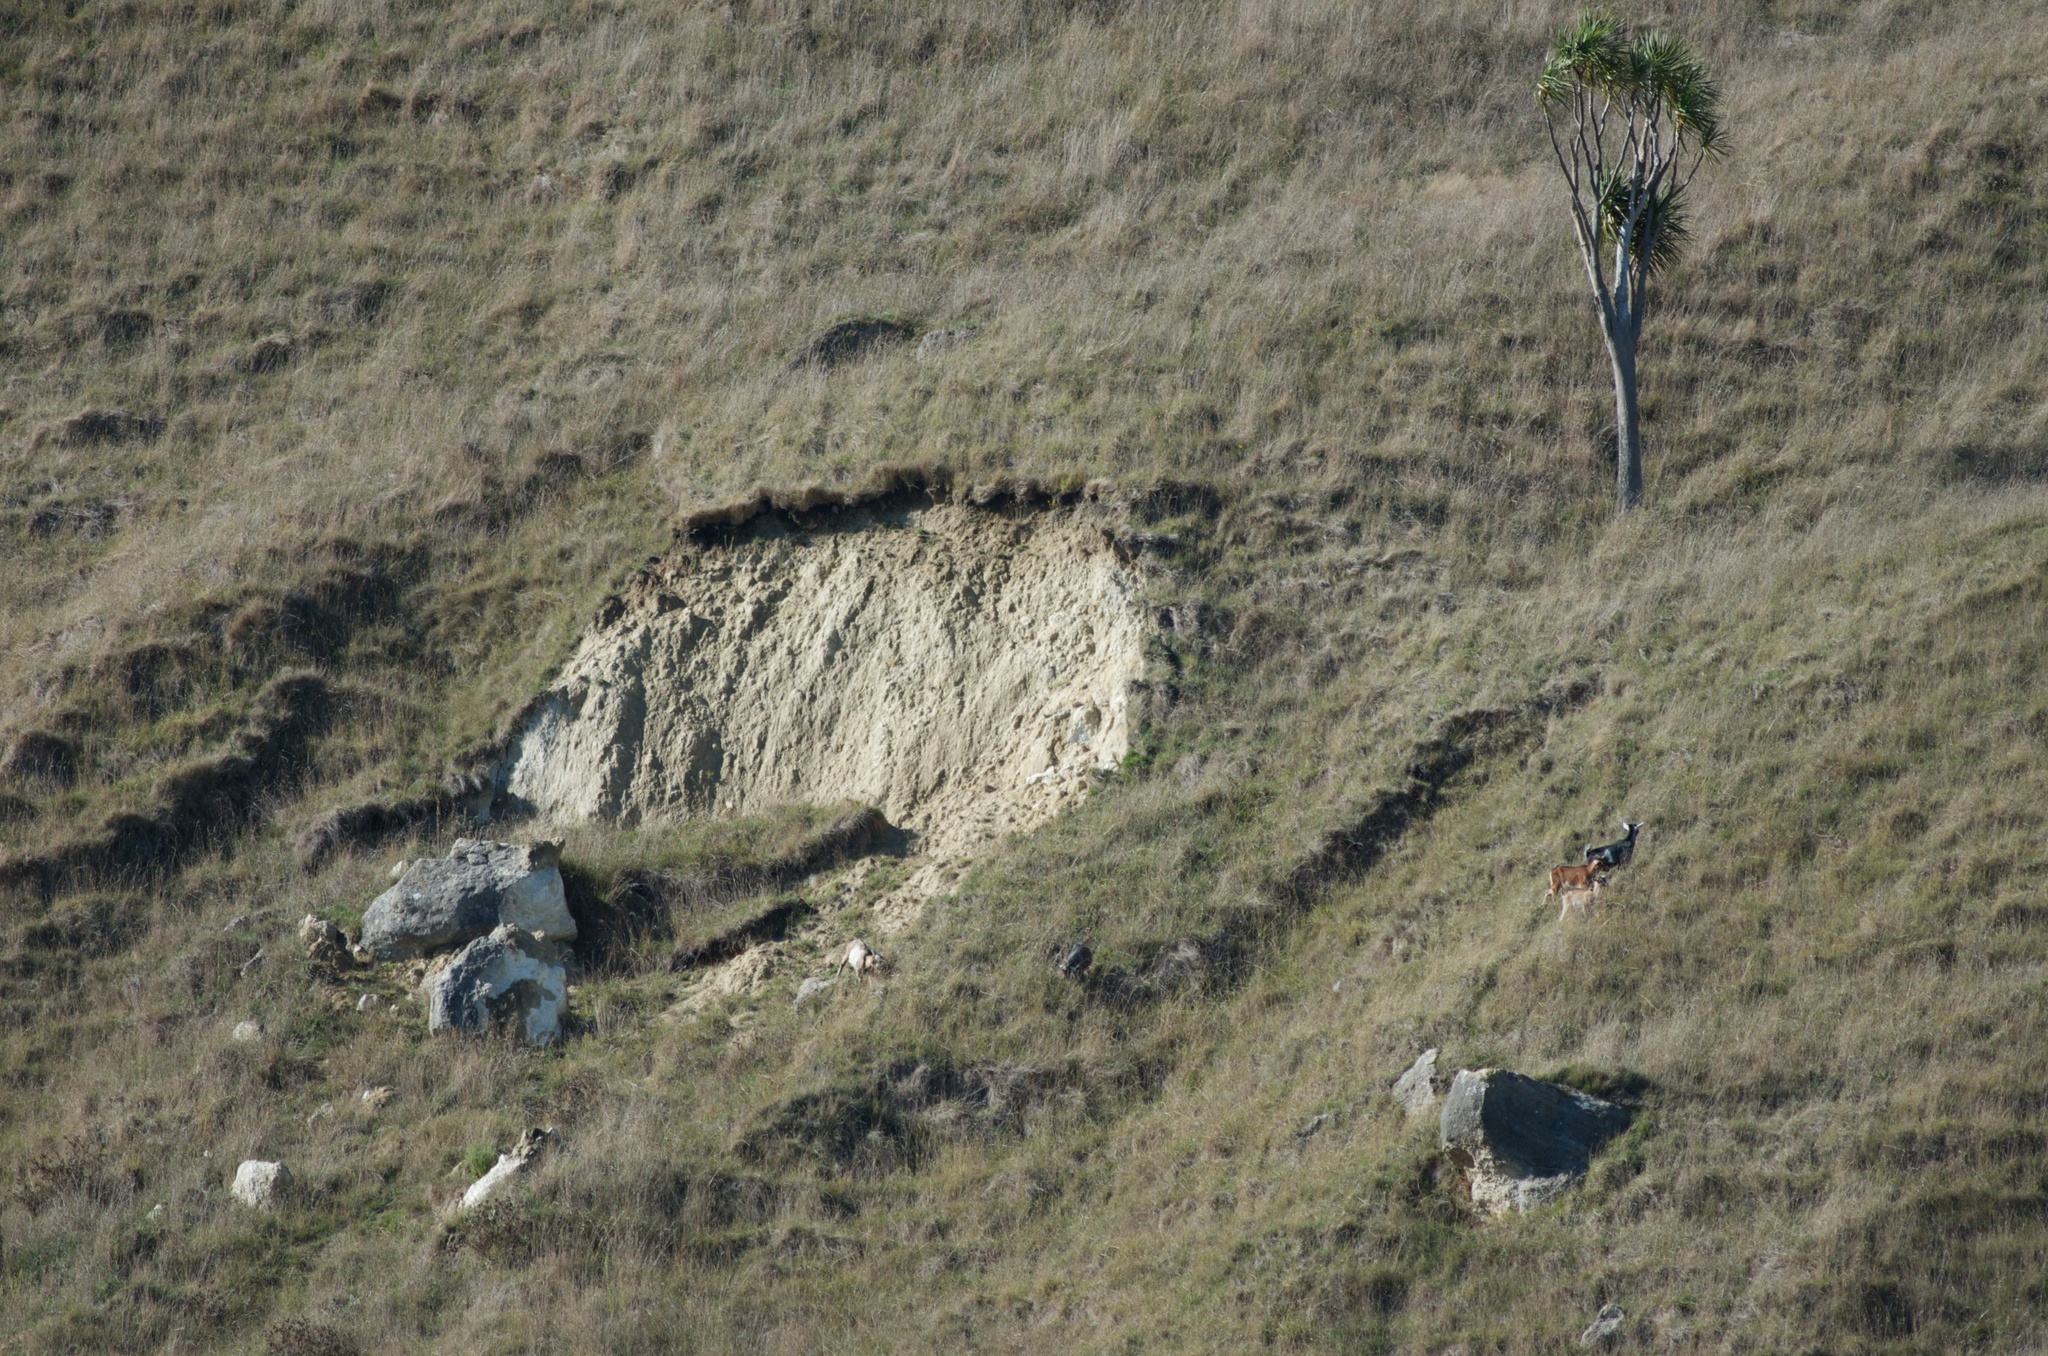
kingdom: Animalia
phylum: Chordata
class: Mammalia
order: Artiodactyla
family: Bovidae
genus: Capra
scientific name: Capra hircus
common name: Domestic goat
